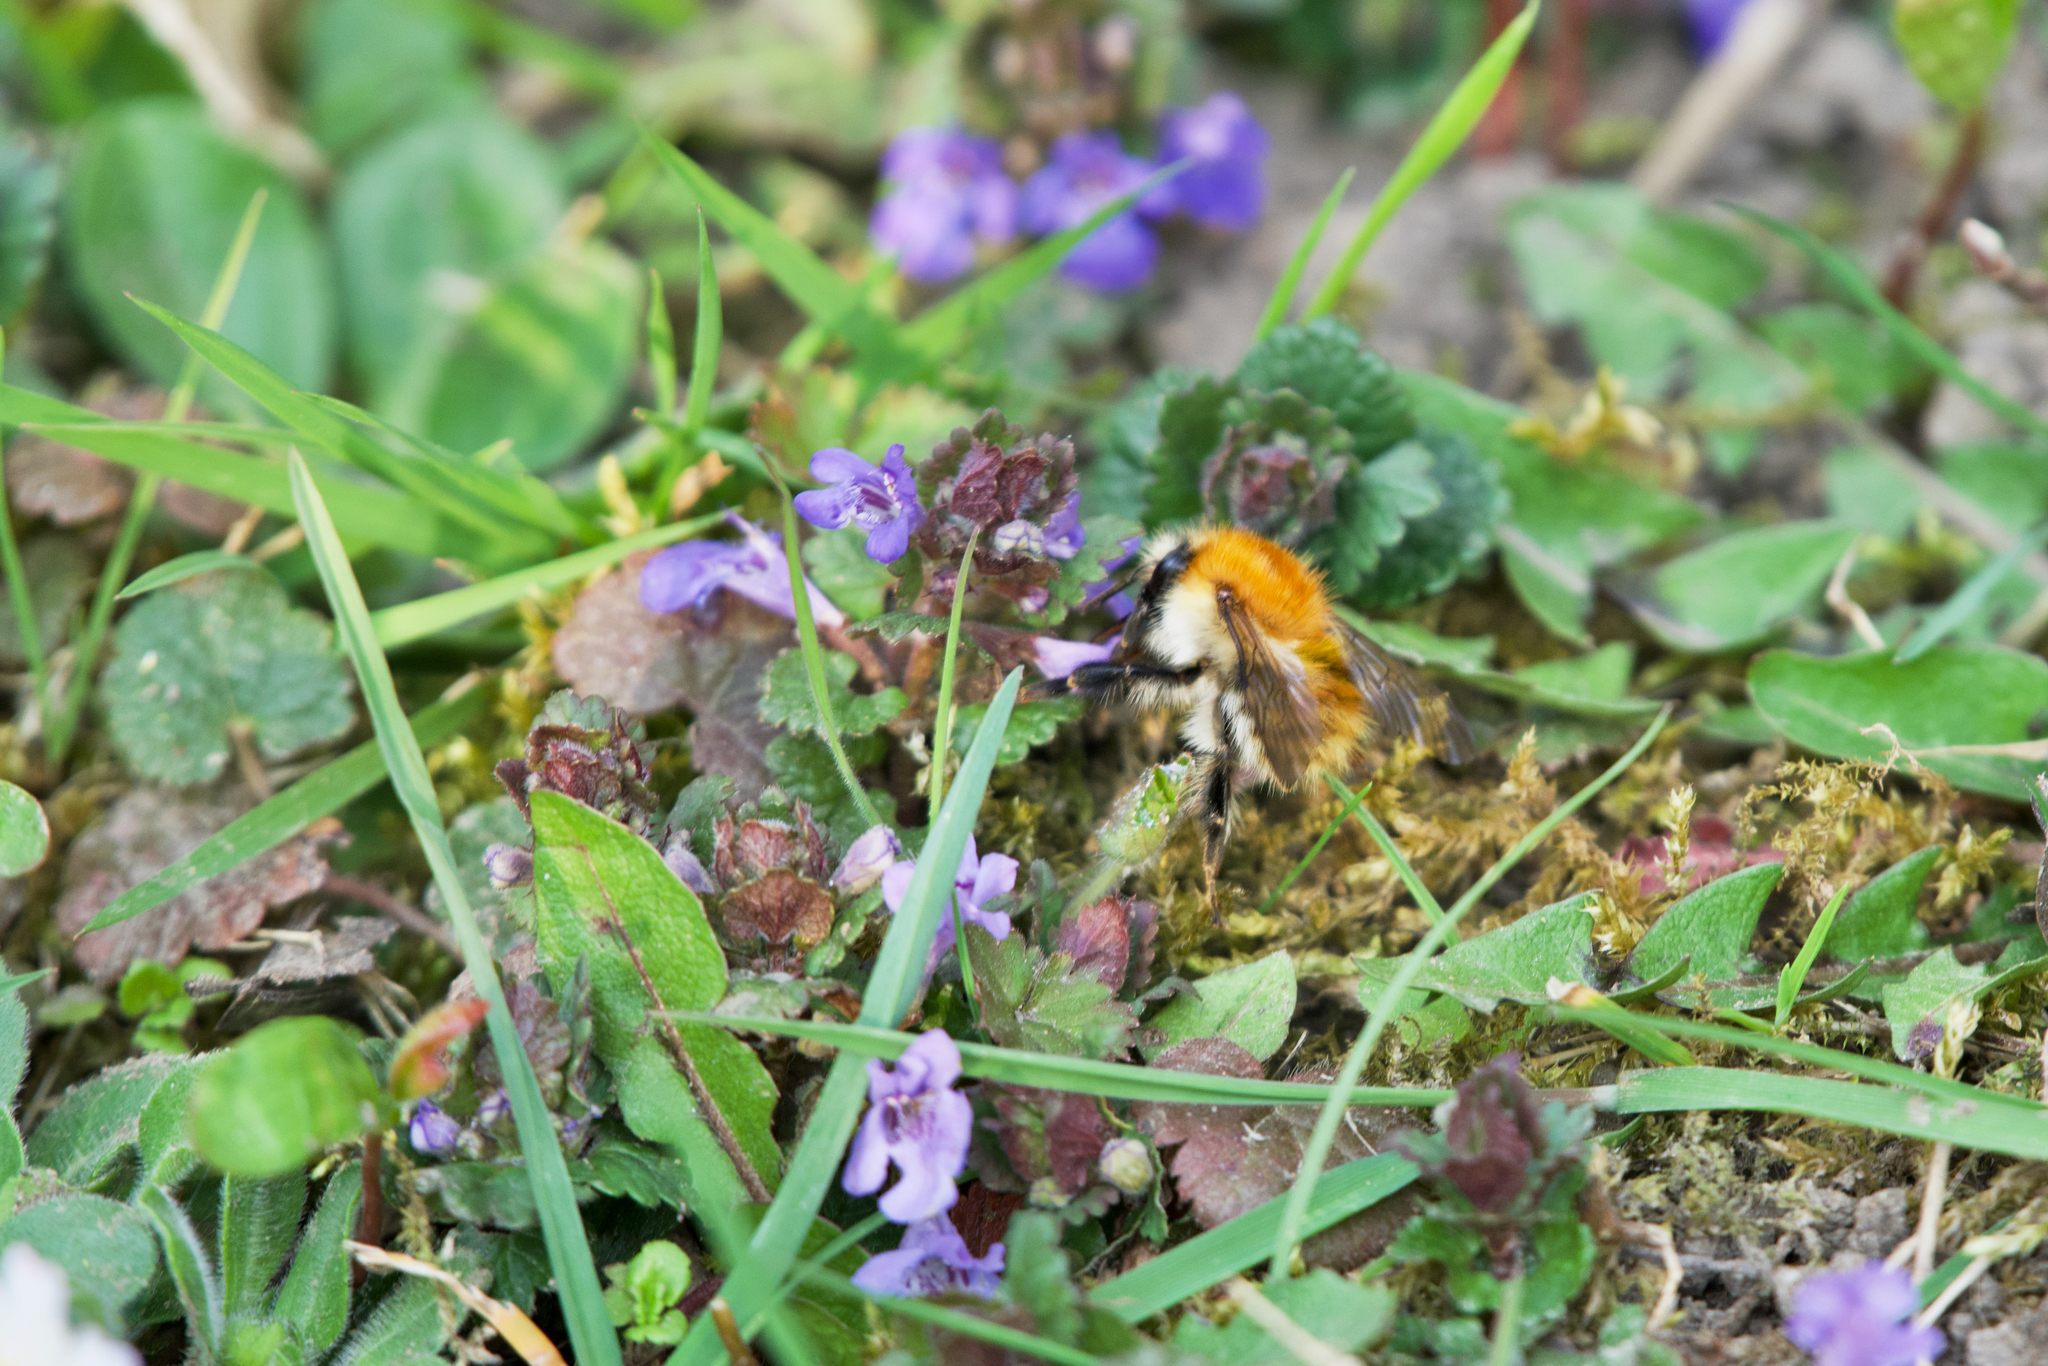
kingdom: Animalia
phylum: Arthropoda
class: Insecta
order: Hymenoptera
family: Apidae
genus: Bombus
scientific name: Bombus pascuorum
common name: Common carder bee
